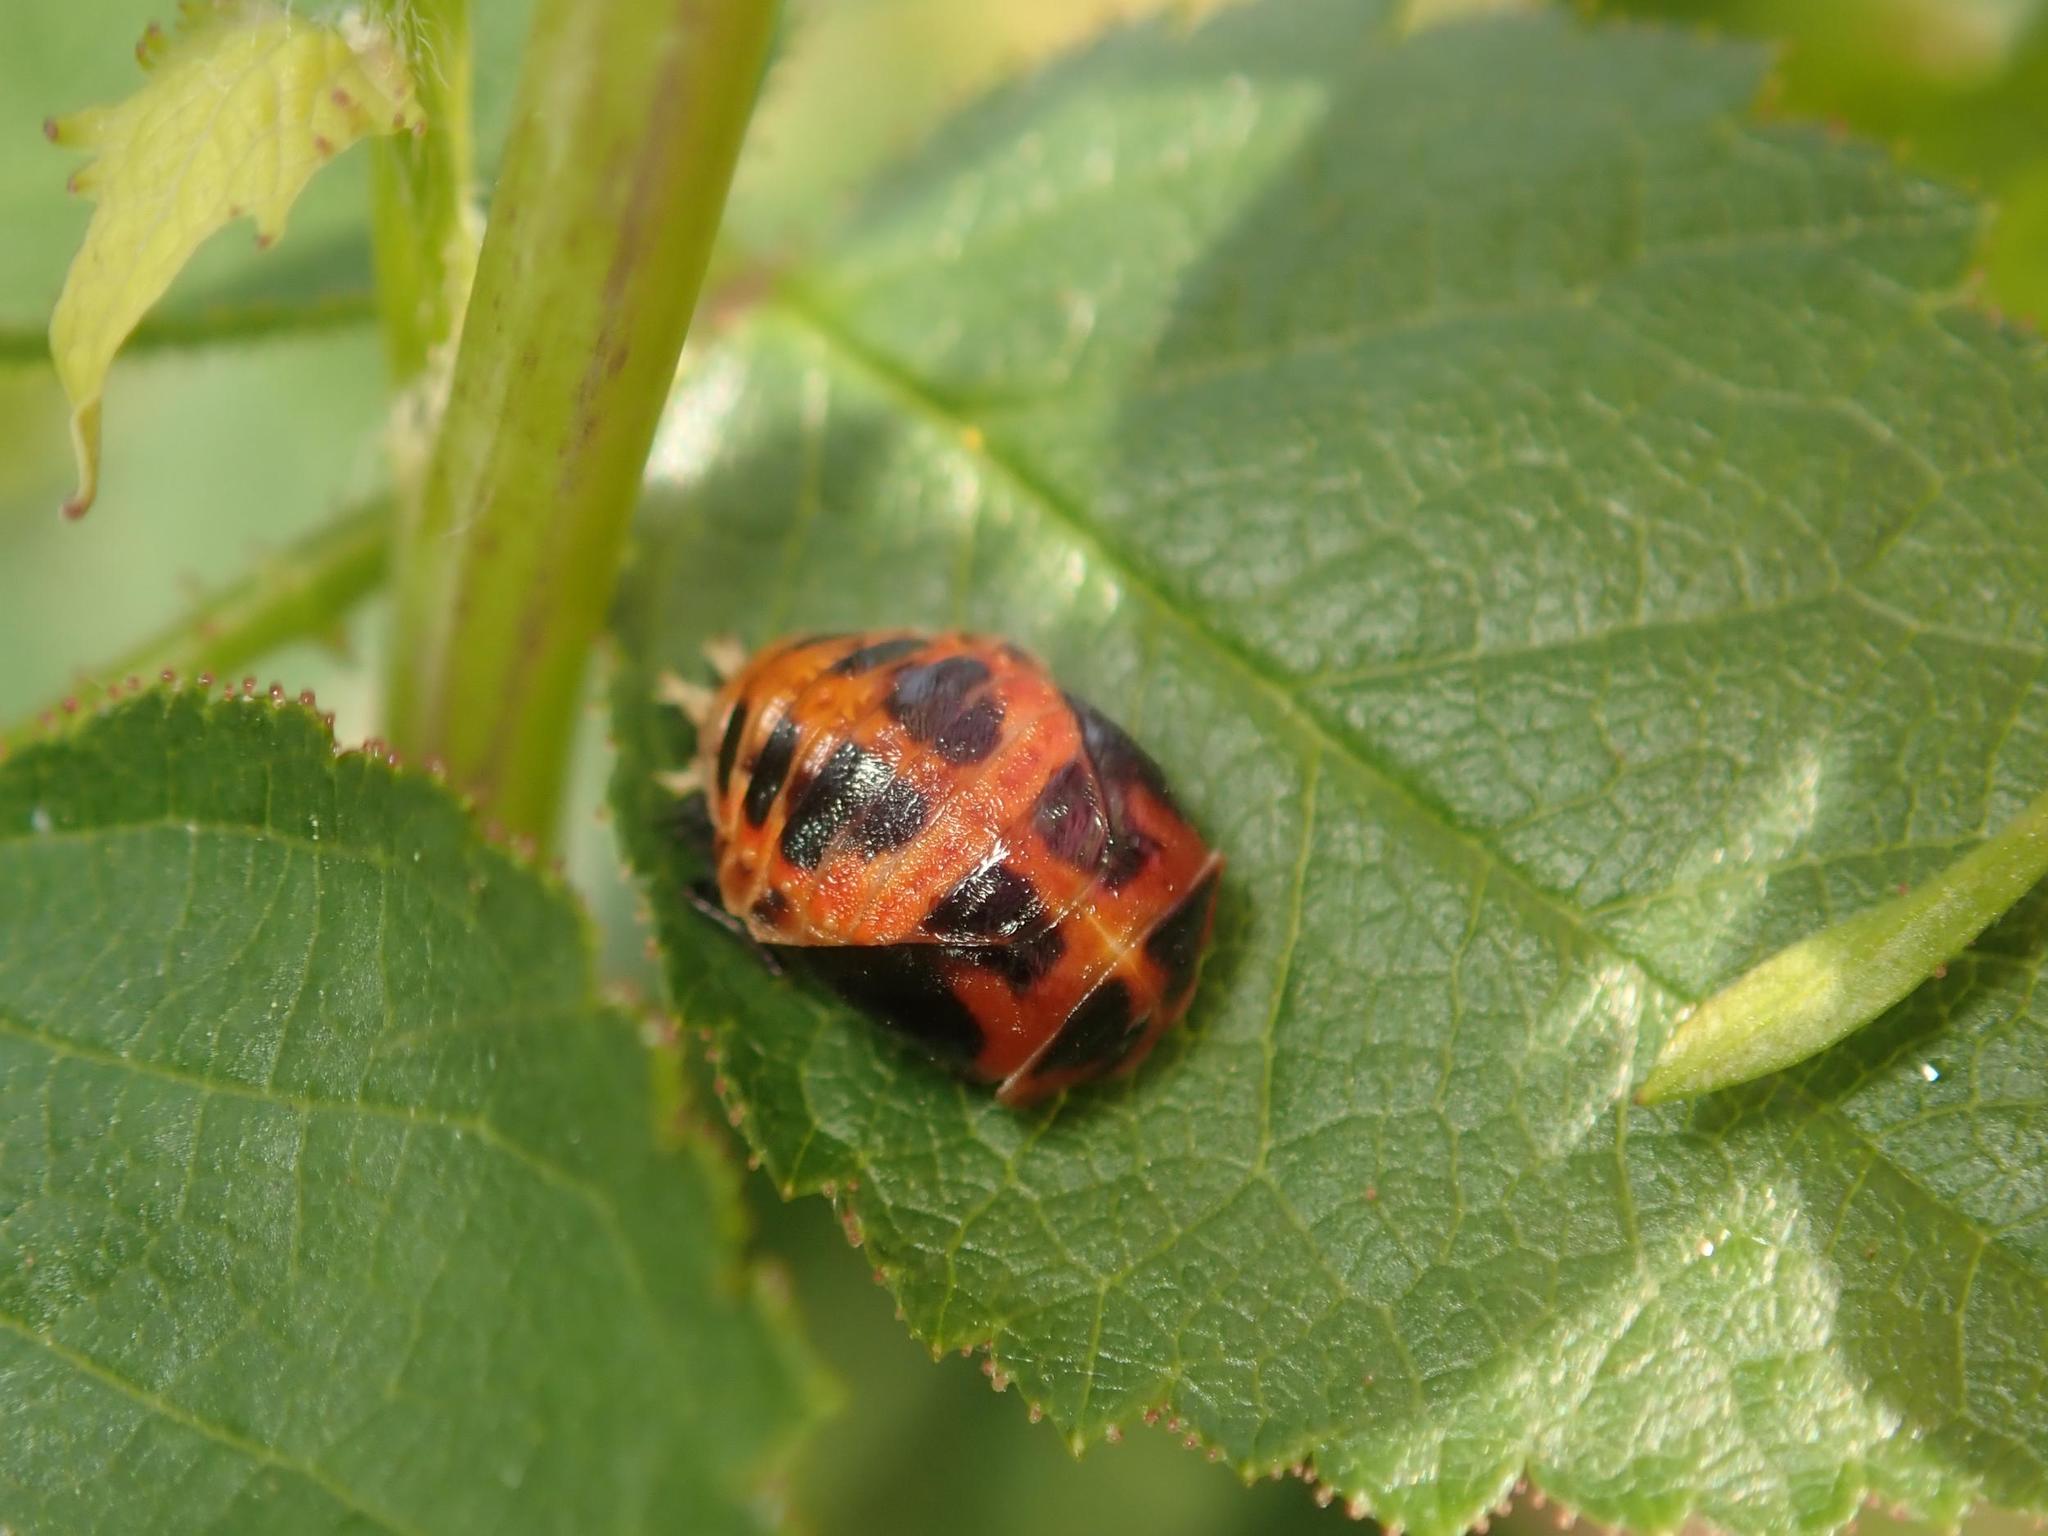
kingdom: Animalia
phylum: Arthropoda
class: Insecta
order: Coleoptera
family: Coccinellidae
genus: Harmonia
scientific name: Harmonia axyridis
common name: Harlequin ladybird
